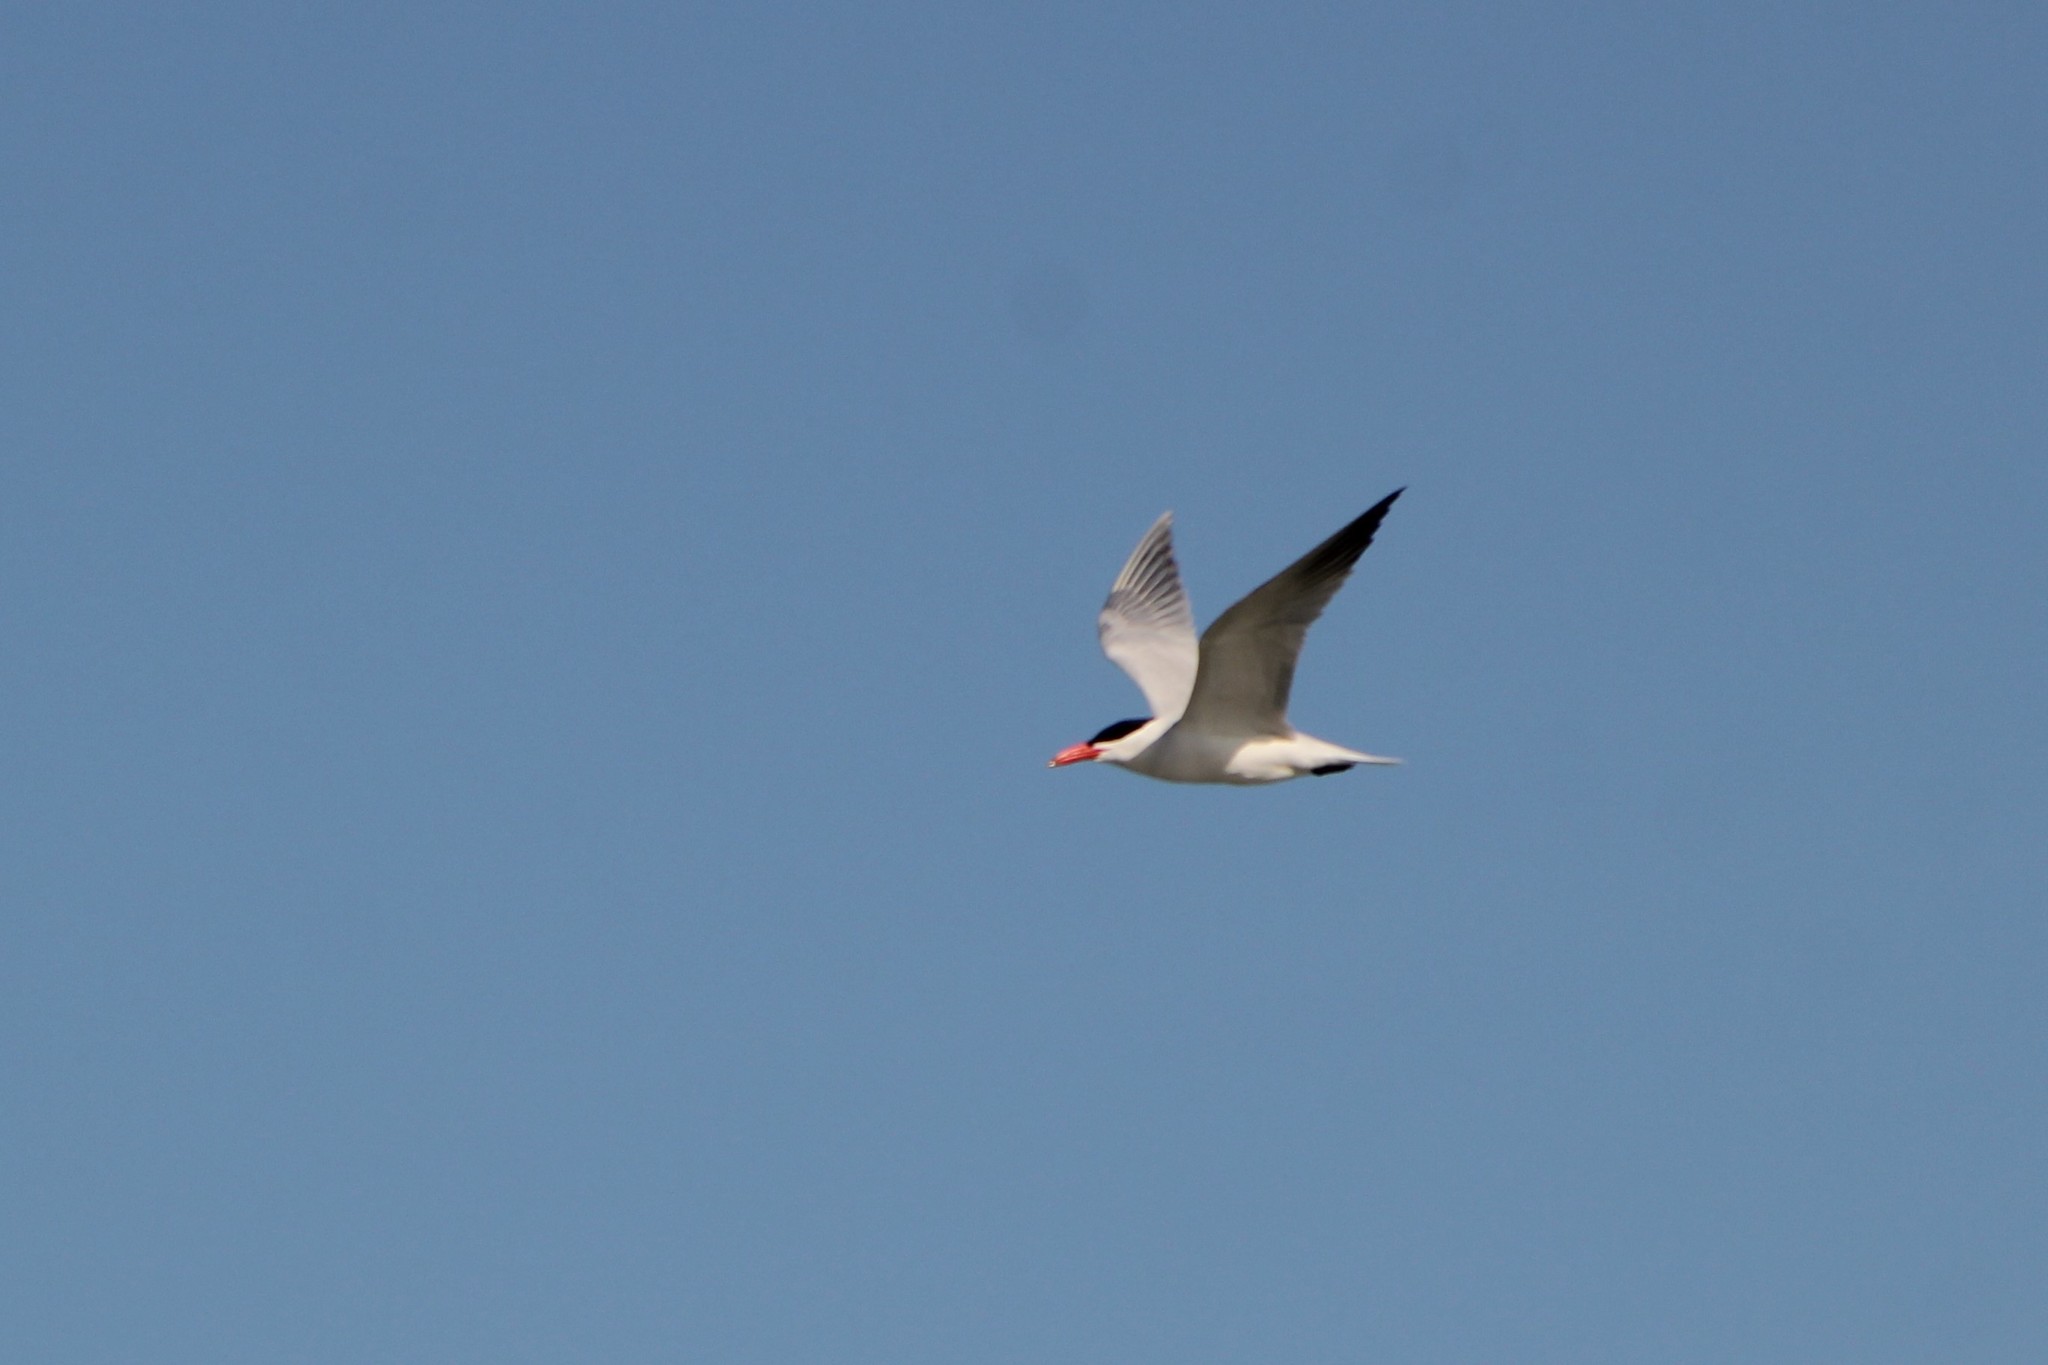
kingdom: Animalia
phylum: Chordata
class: Aves
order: Charadriiformes
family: Laridae
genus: Hydroprogne
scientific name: Hydroprogne caspia
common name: Caspian tern
